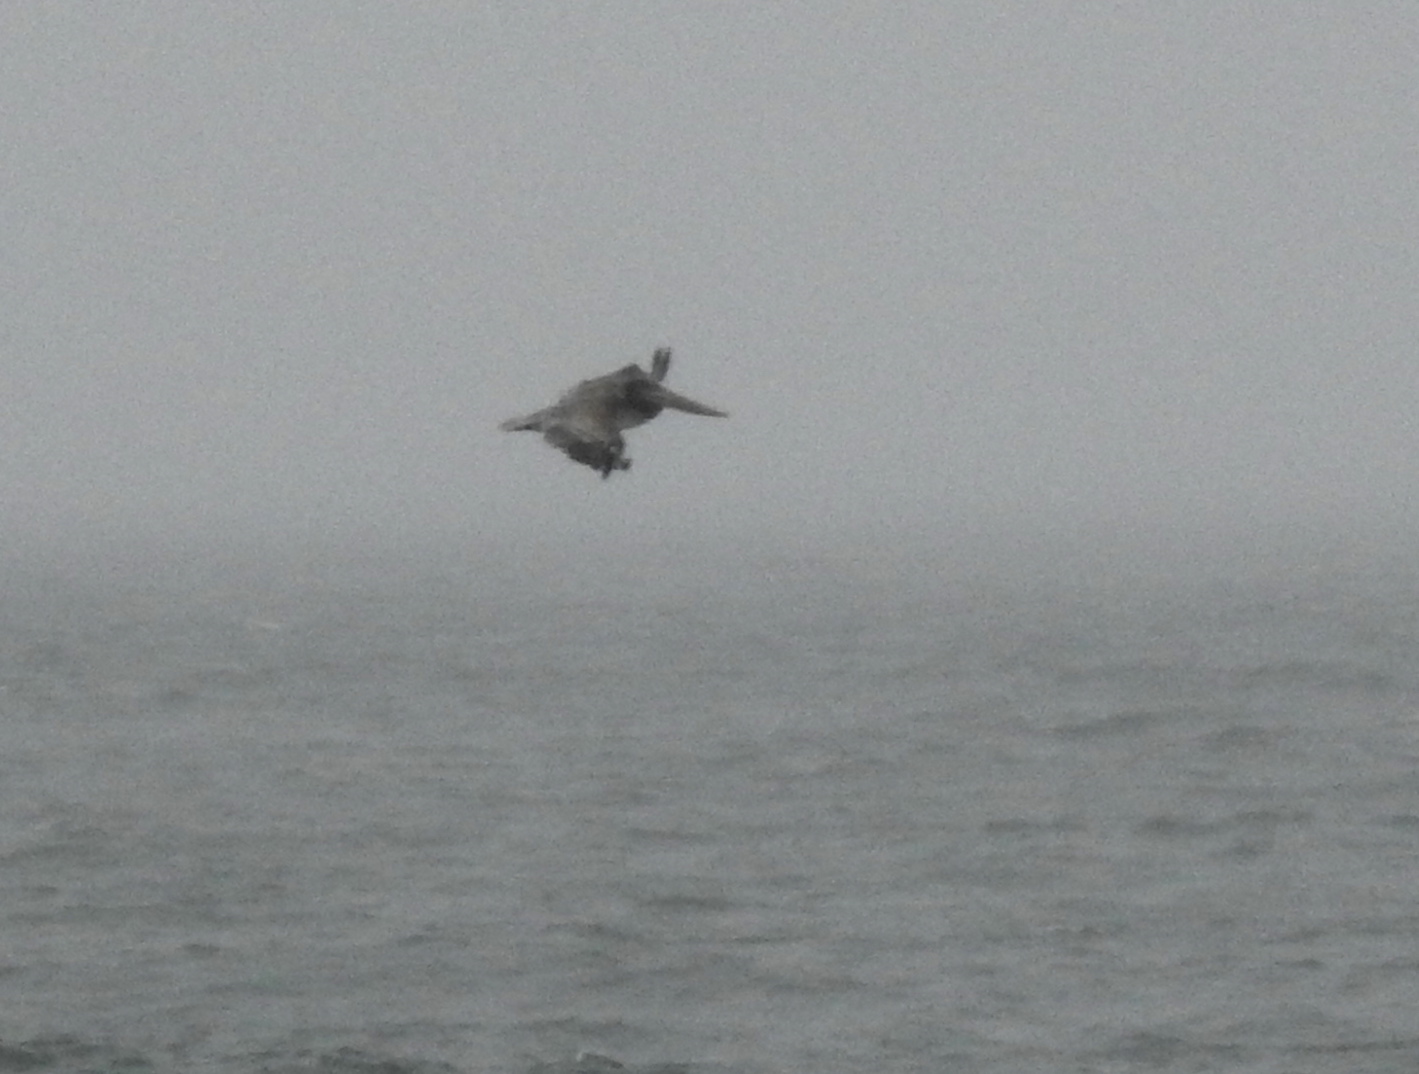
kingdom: Animalia
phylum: Chordata
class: Aves
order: Pelecaniformes
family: Pelecanidae
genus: Pelecanus
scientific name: Pelecanus occidentalis
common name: Brown pelican
